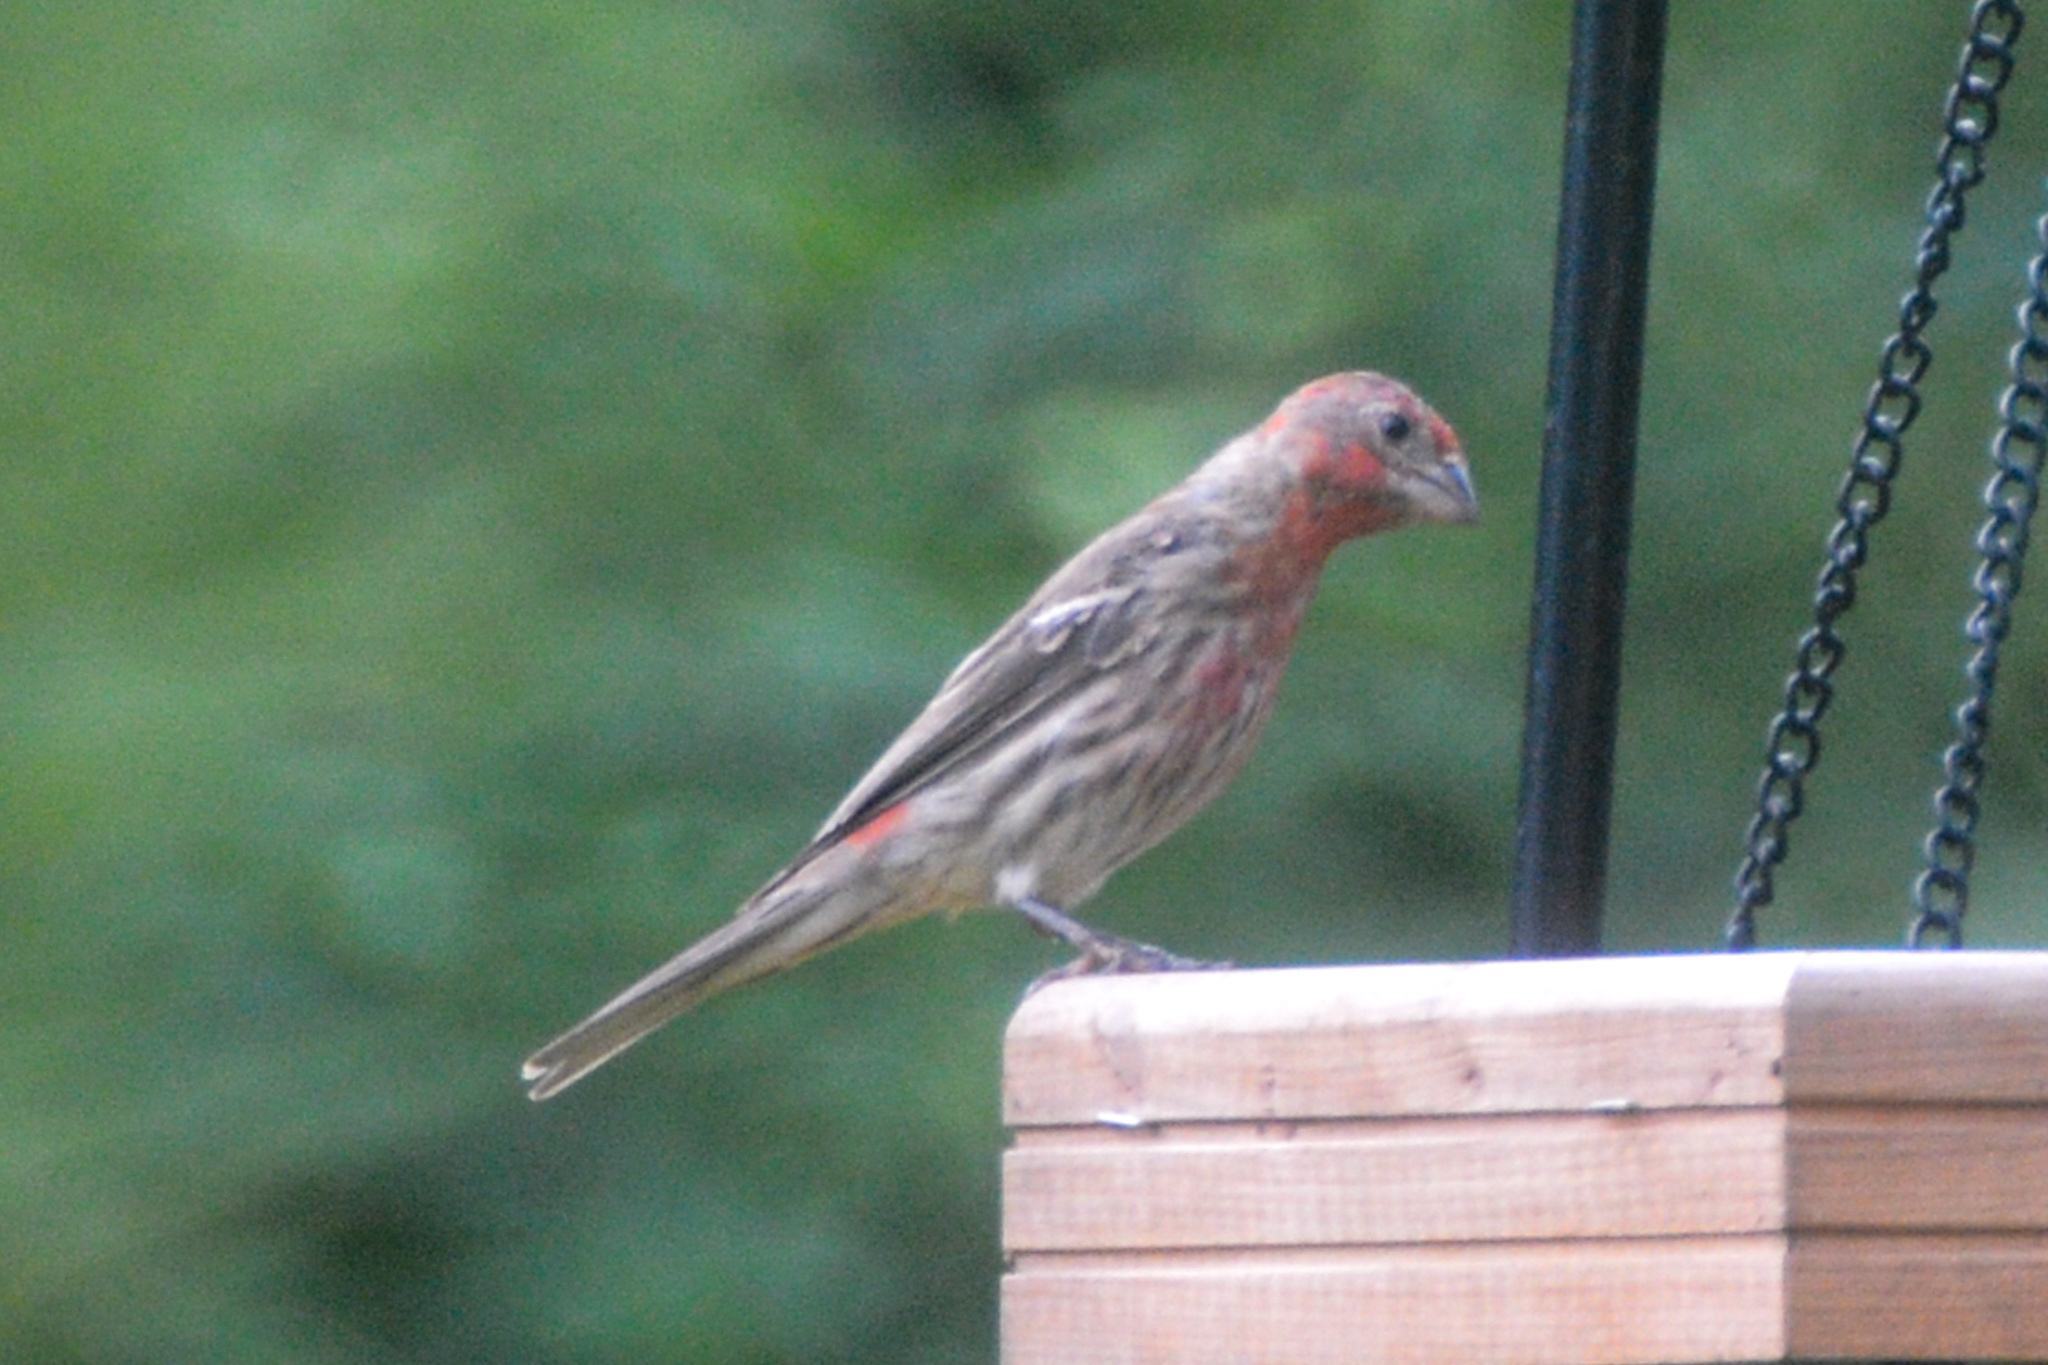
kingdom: Animalia
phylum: Chordata
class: Aves
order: Passeriformes
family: Fringillidae
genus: Haemorhous
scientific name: Haemorhous mexicanus
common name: House finch
